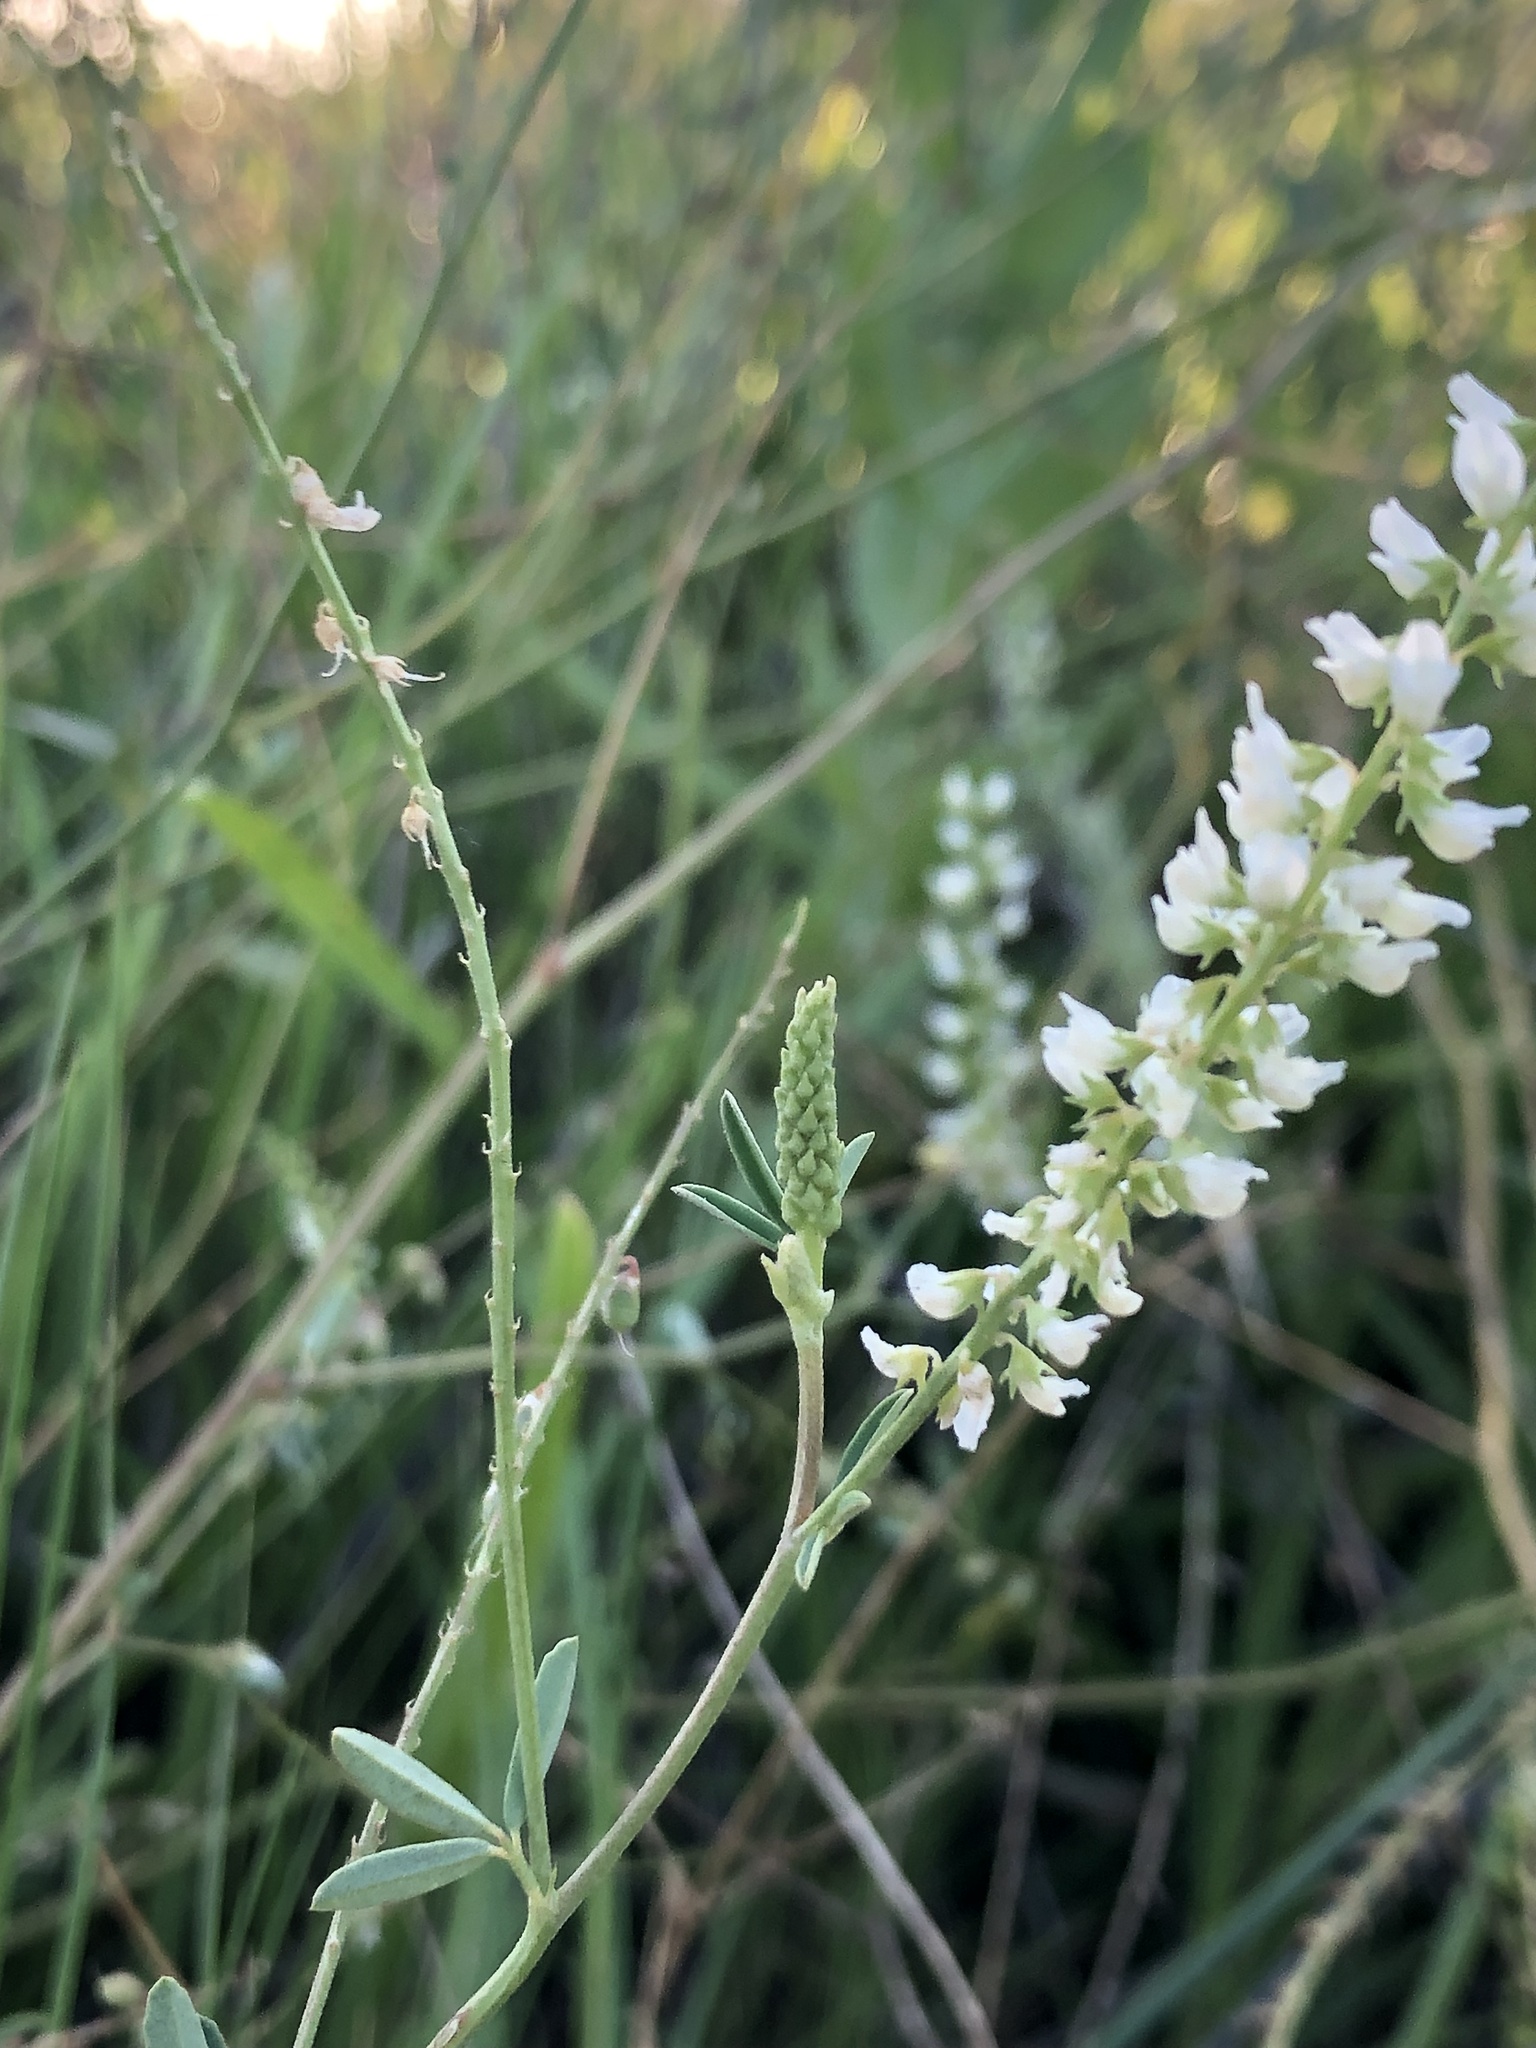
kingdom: Plantae
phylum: Tracheophyta
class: Magnoliopsida
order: Fabales
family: Fabaceae
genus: Melilotus
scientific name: Melilotus albus
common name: White melilot
